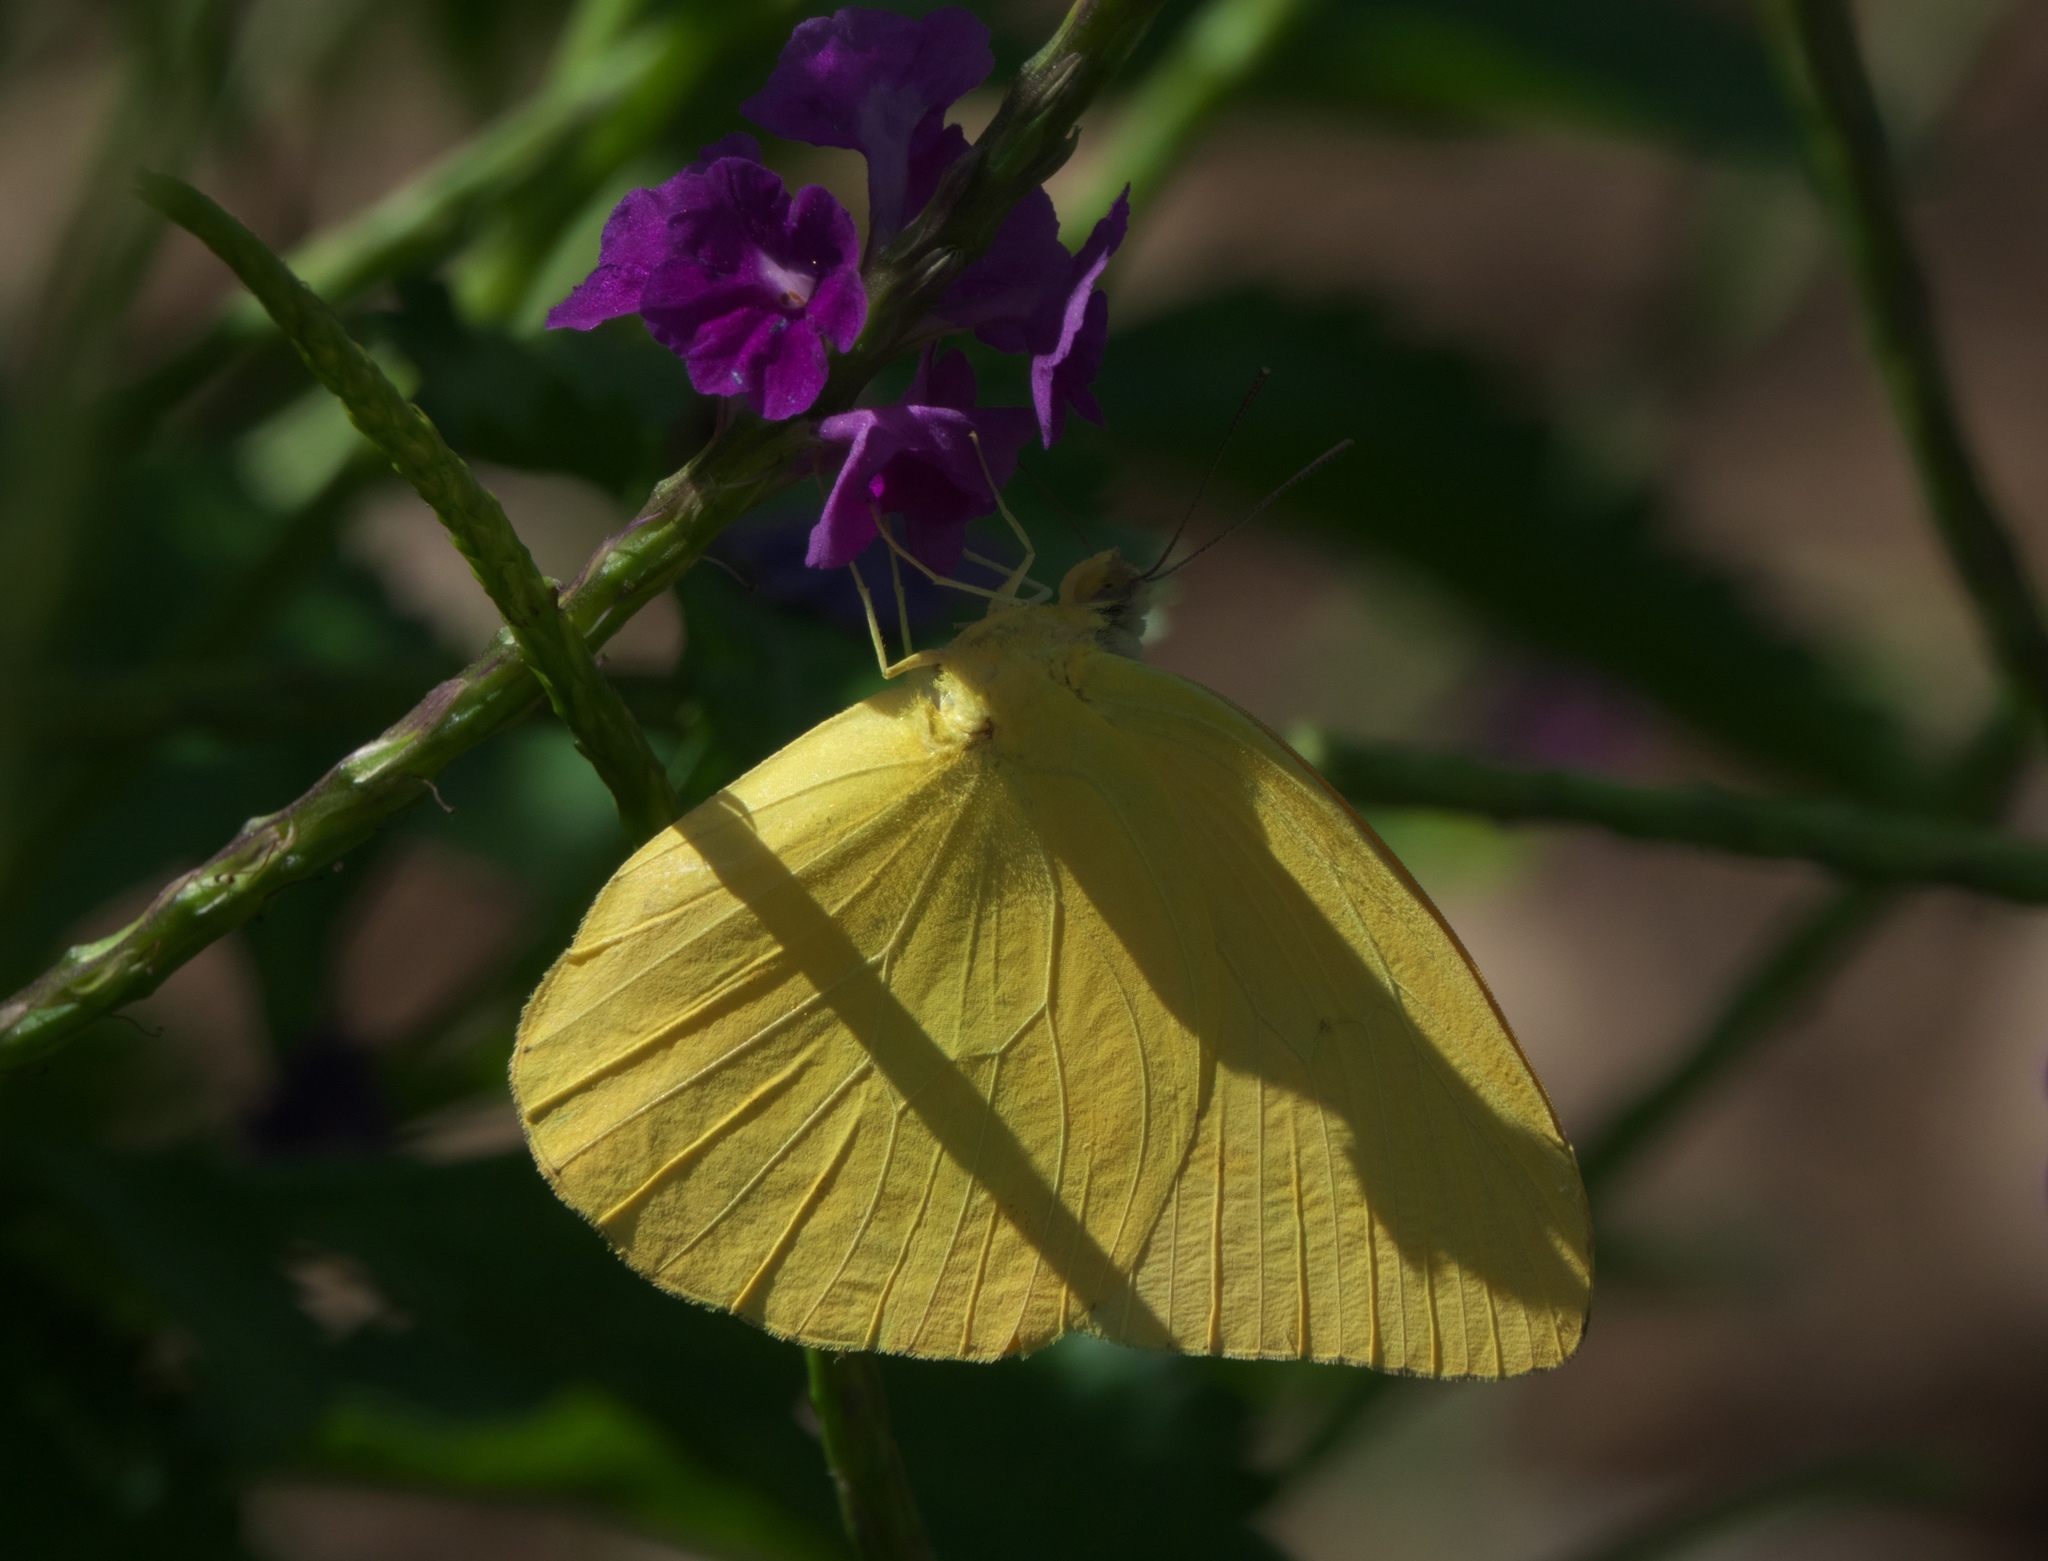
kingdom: Animalia
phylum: Arthropoda
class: Insecta
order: Lepidoptera
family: Pieridae
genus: Phoebis
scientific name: Phoebis agarithe
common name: Large orange sulphur
